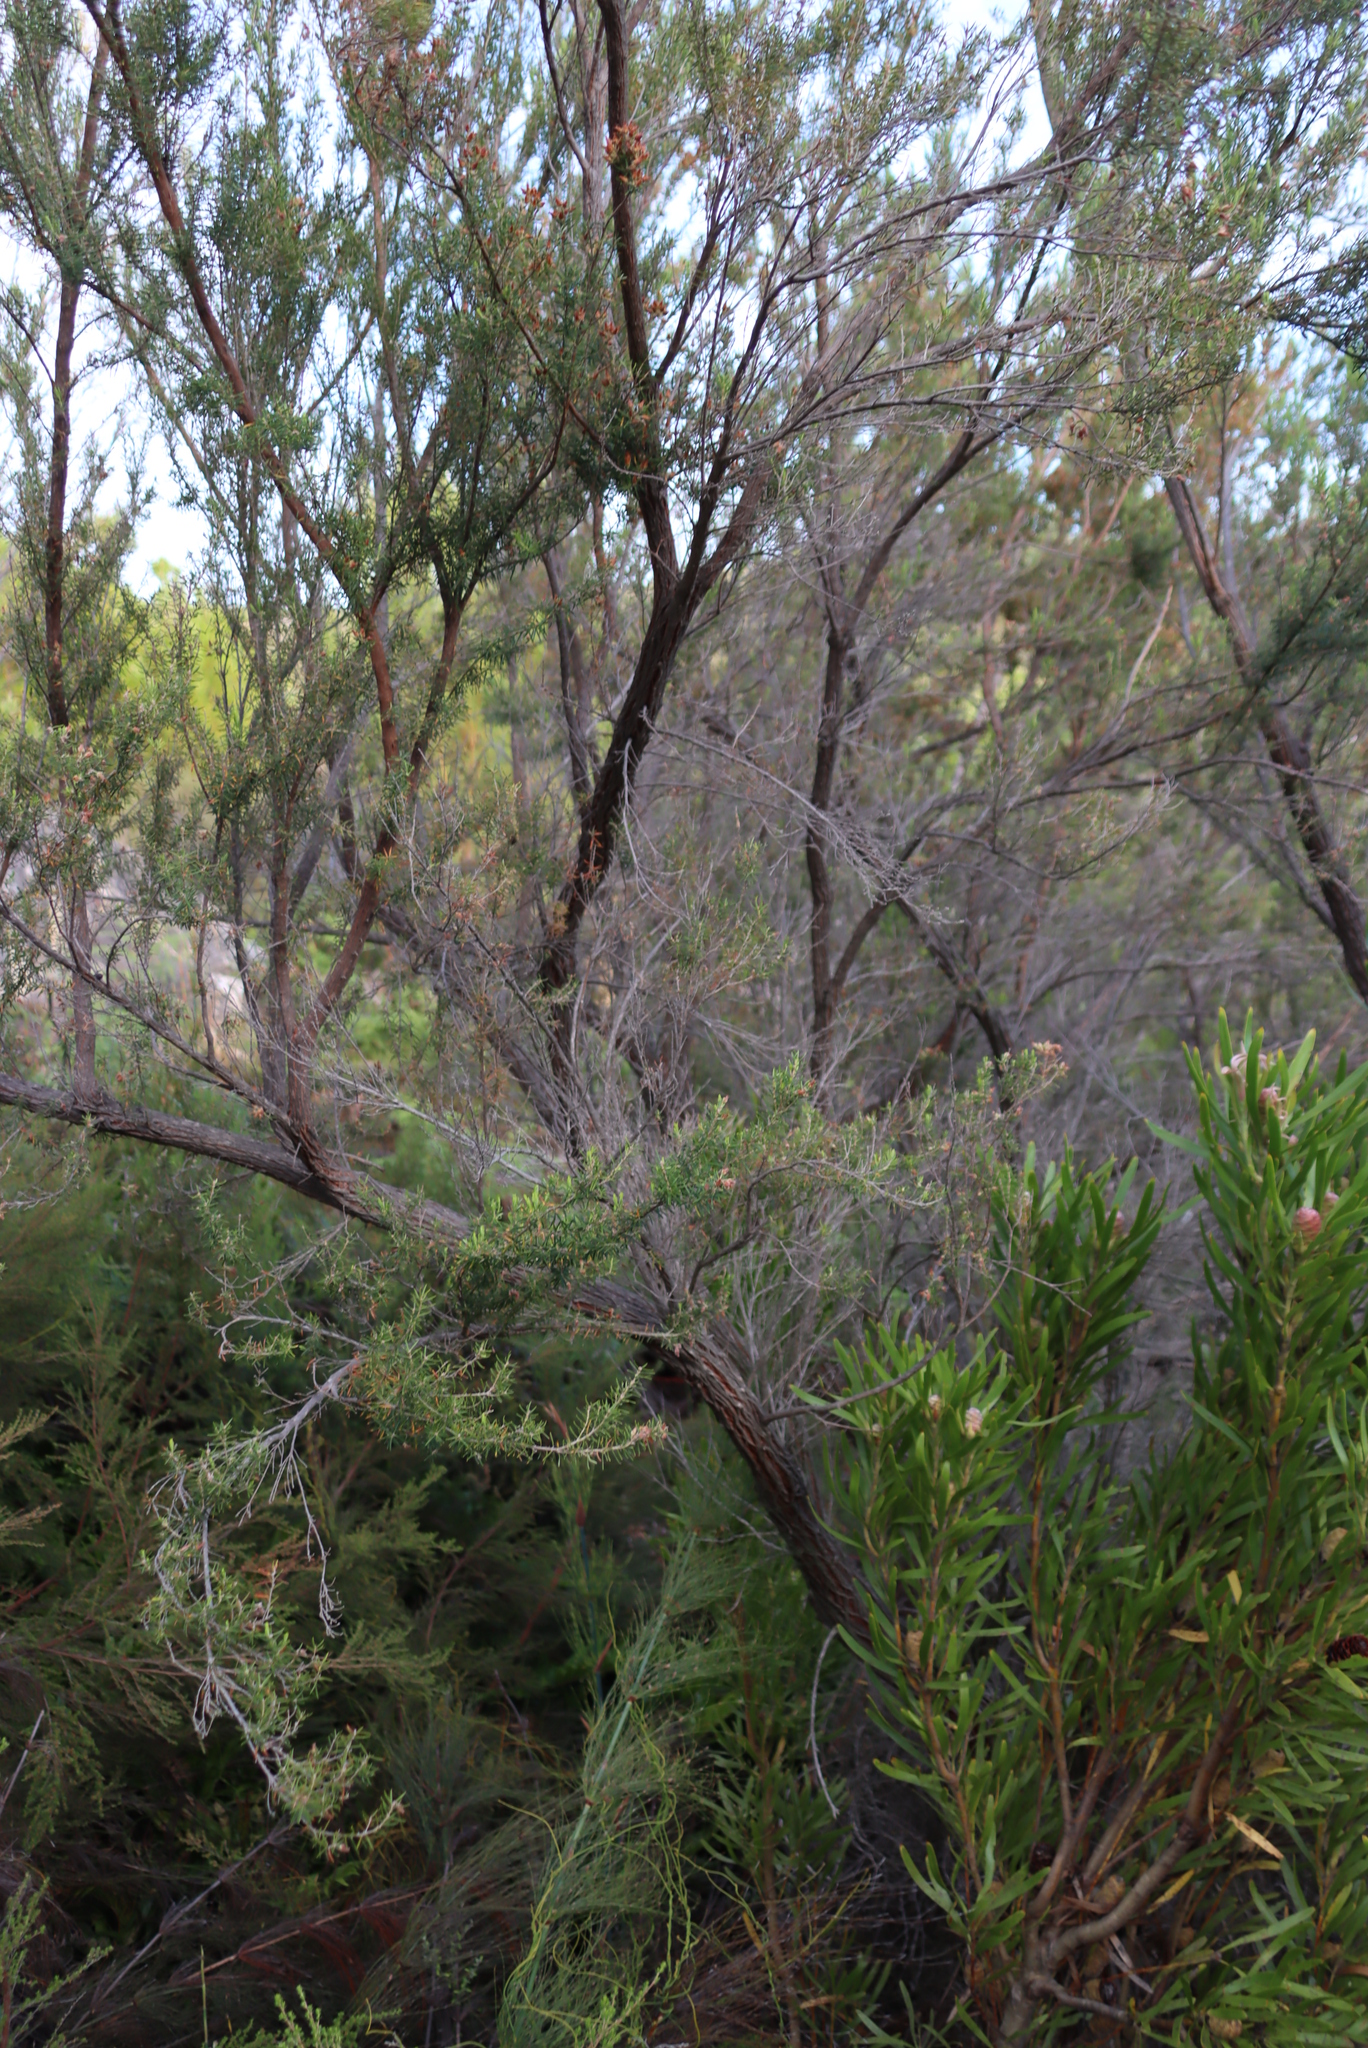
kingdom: Plantae
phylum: Tracheophyta
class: Magnoliopsida
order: Ericales
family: Ericaceae
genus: Erica
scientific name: Erica caffra
